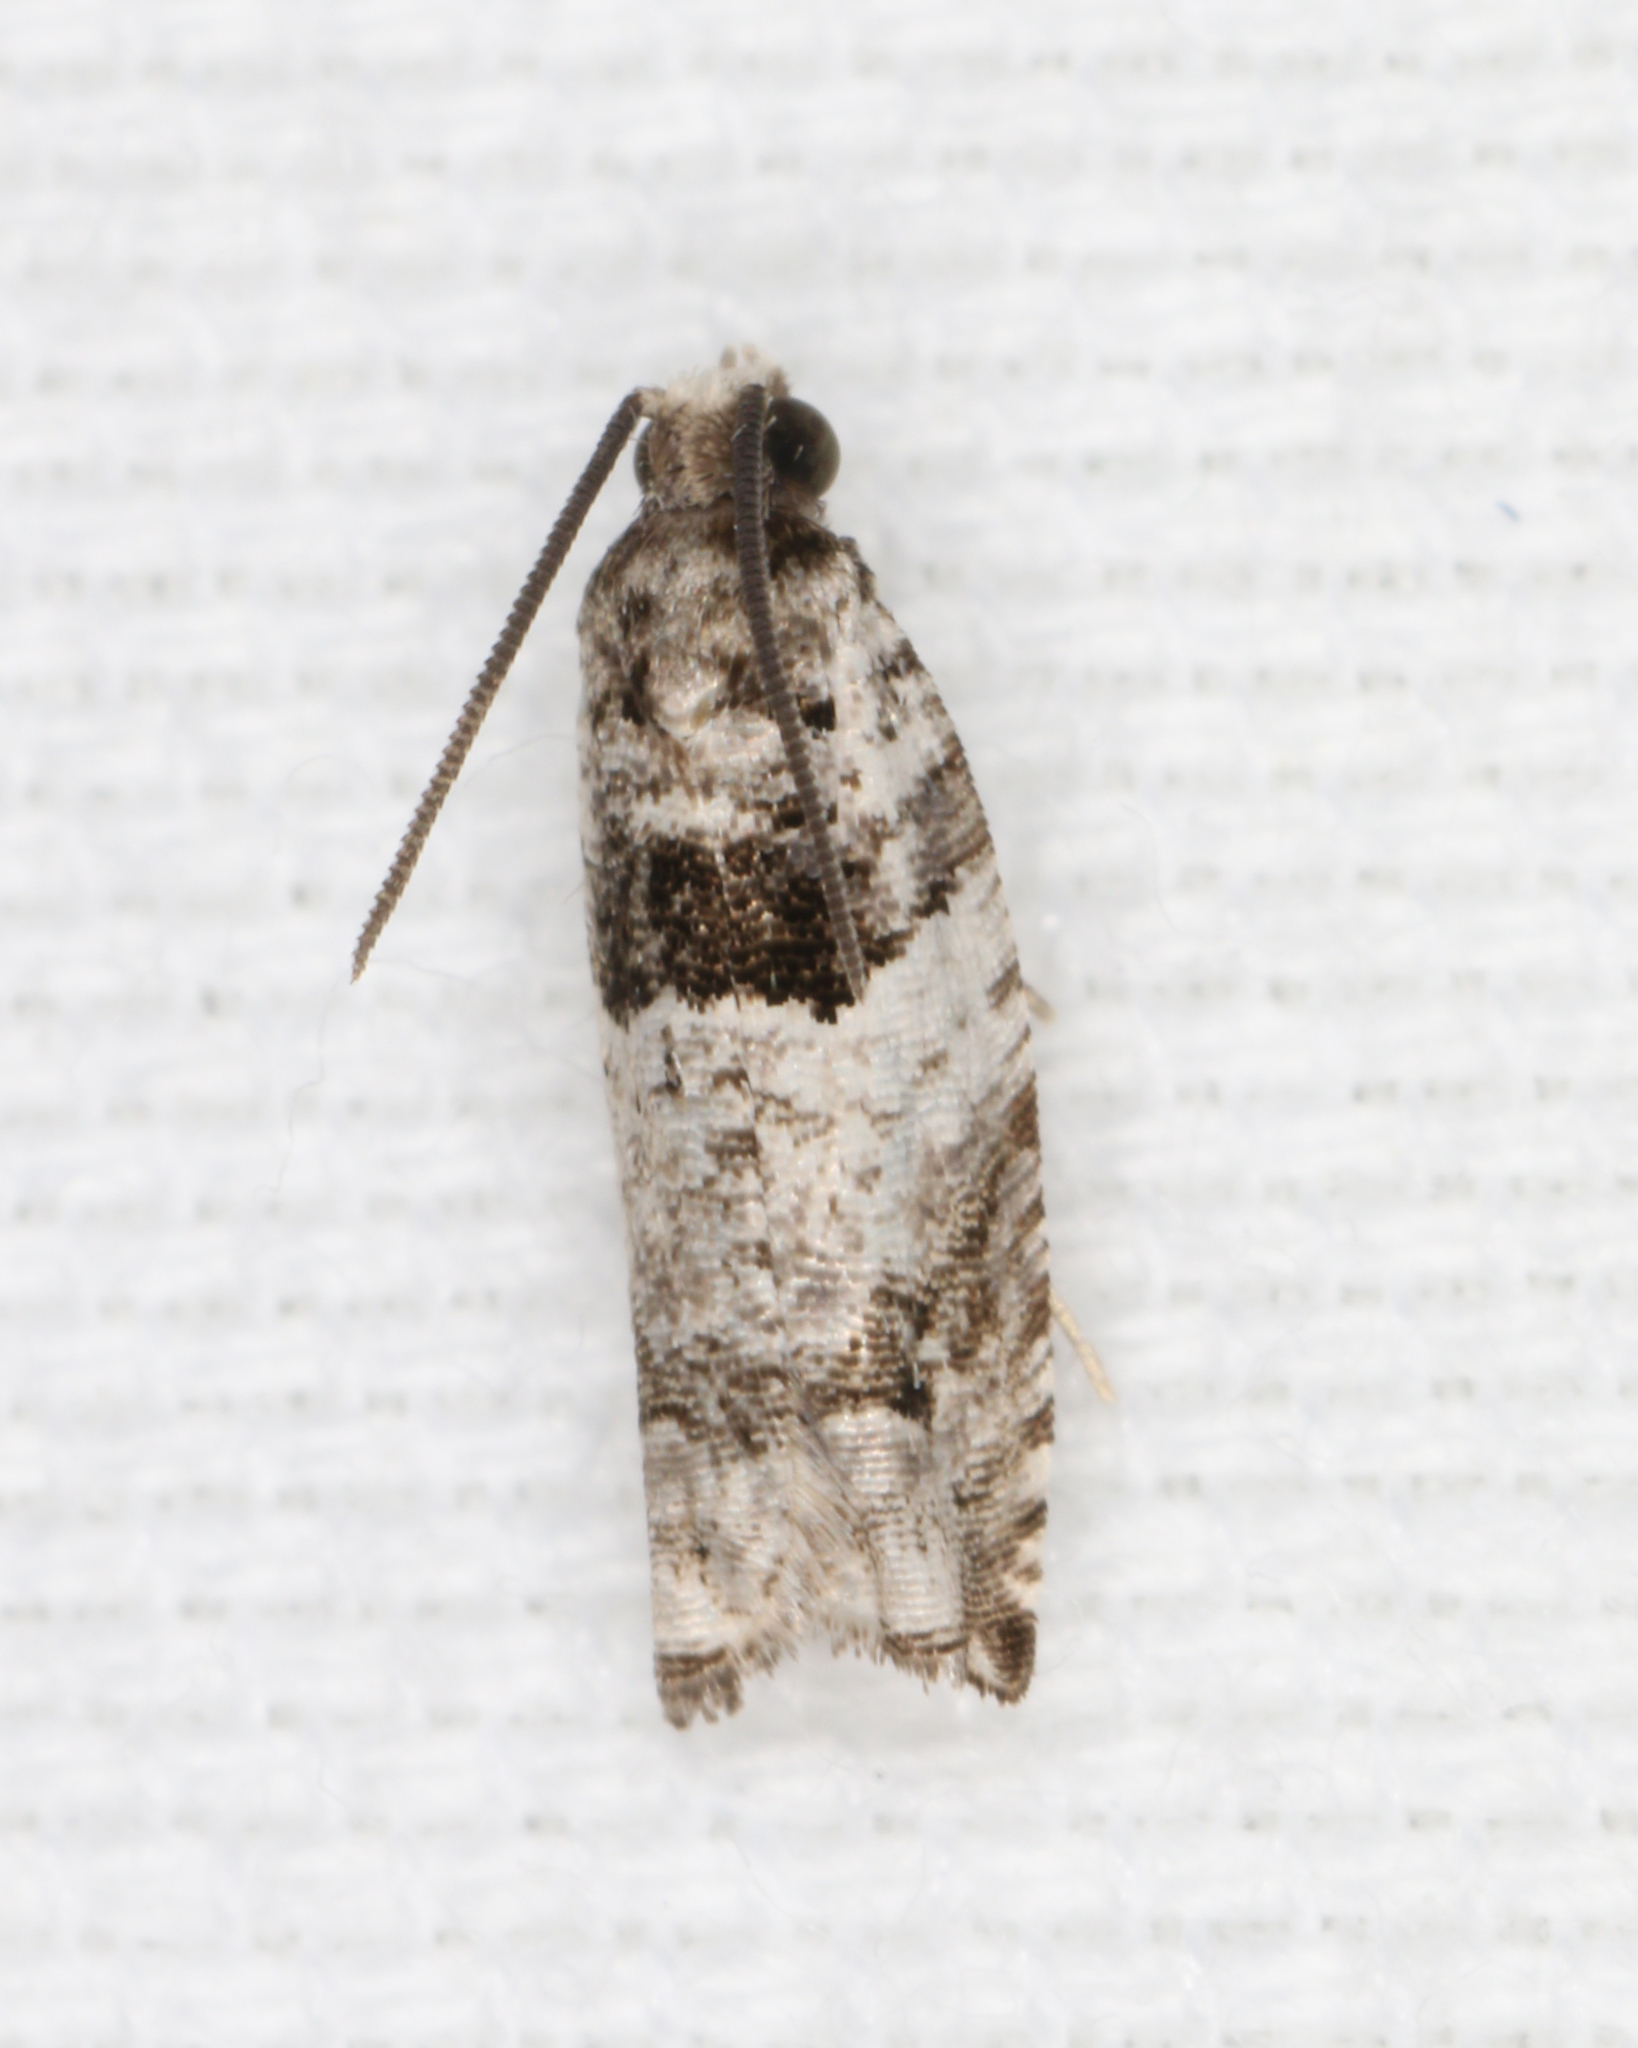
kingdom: Animalia
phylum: Arthropoda
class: Insecta
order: Lepidoptera
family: Tortricidae
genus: Rhopobota
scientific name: Rhopobota dietziana
